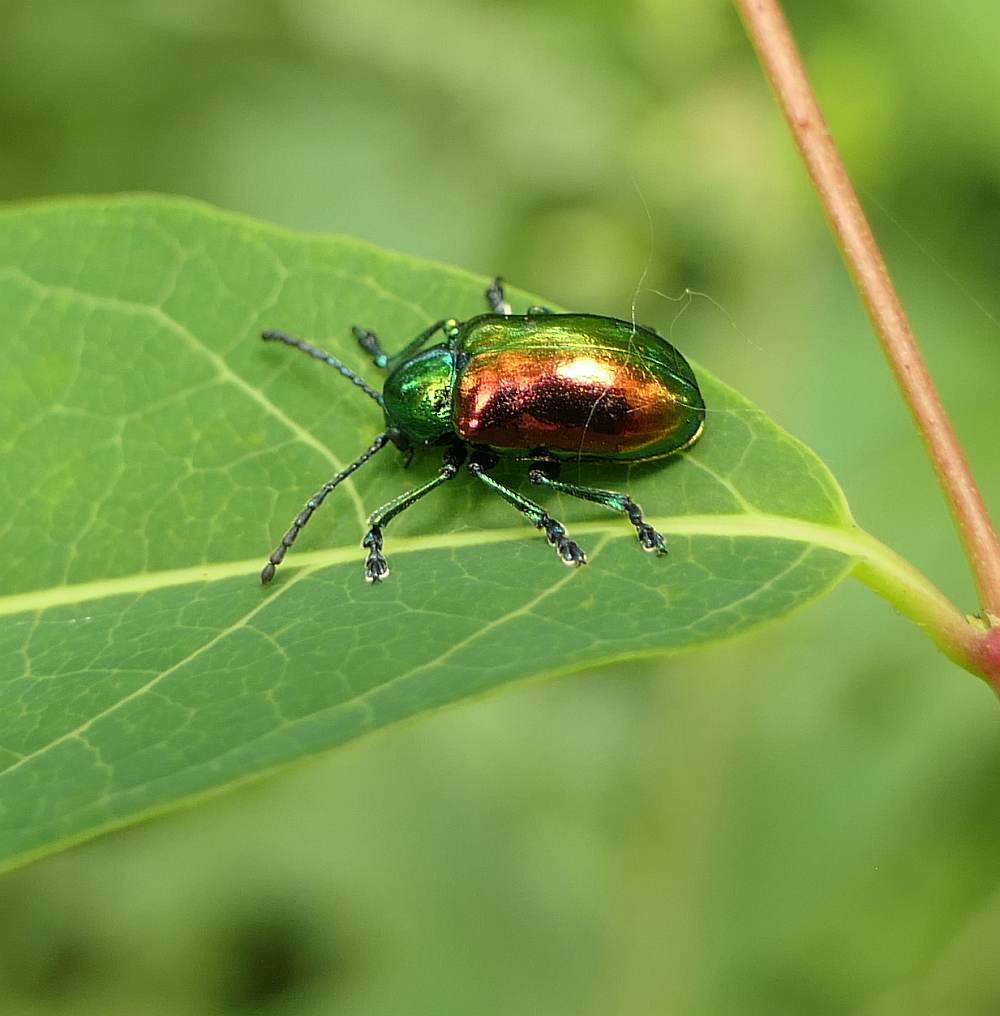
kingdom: Animalia
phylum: Arthropoda
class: Insecta
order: Coleoptera
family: Chrysomelidae
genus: Chrysochus
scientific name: Chrysochus auratus
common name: Dogbane leaf beetle
